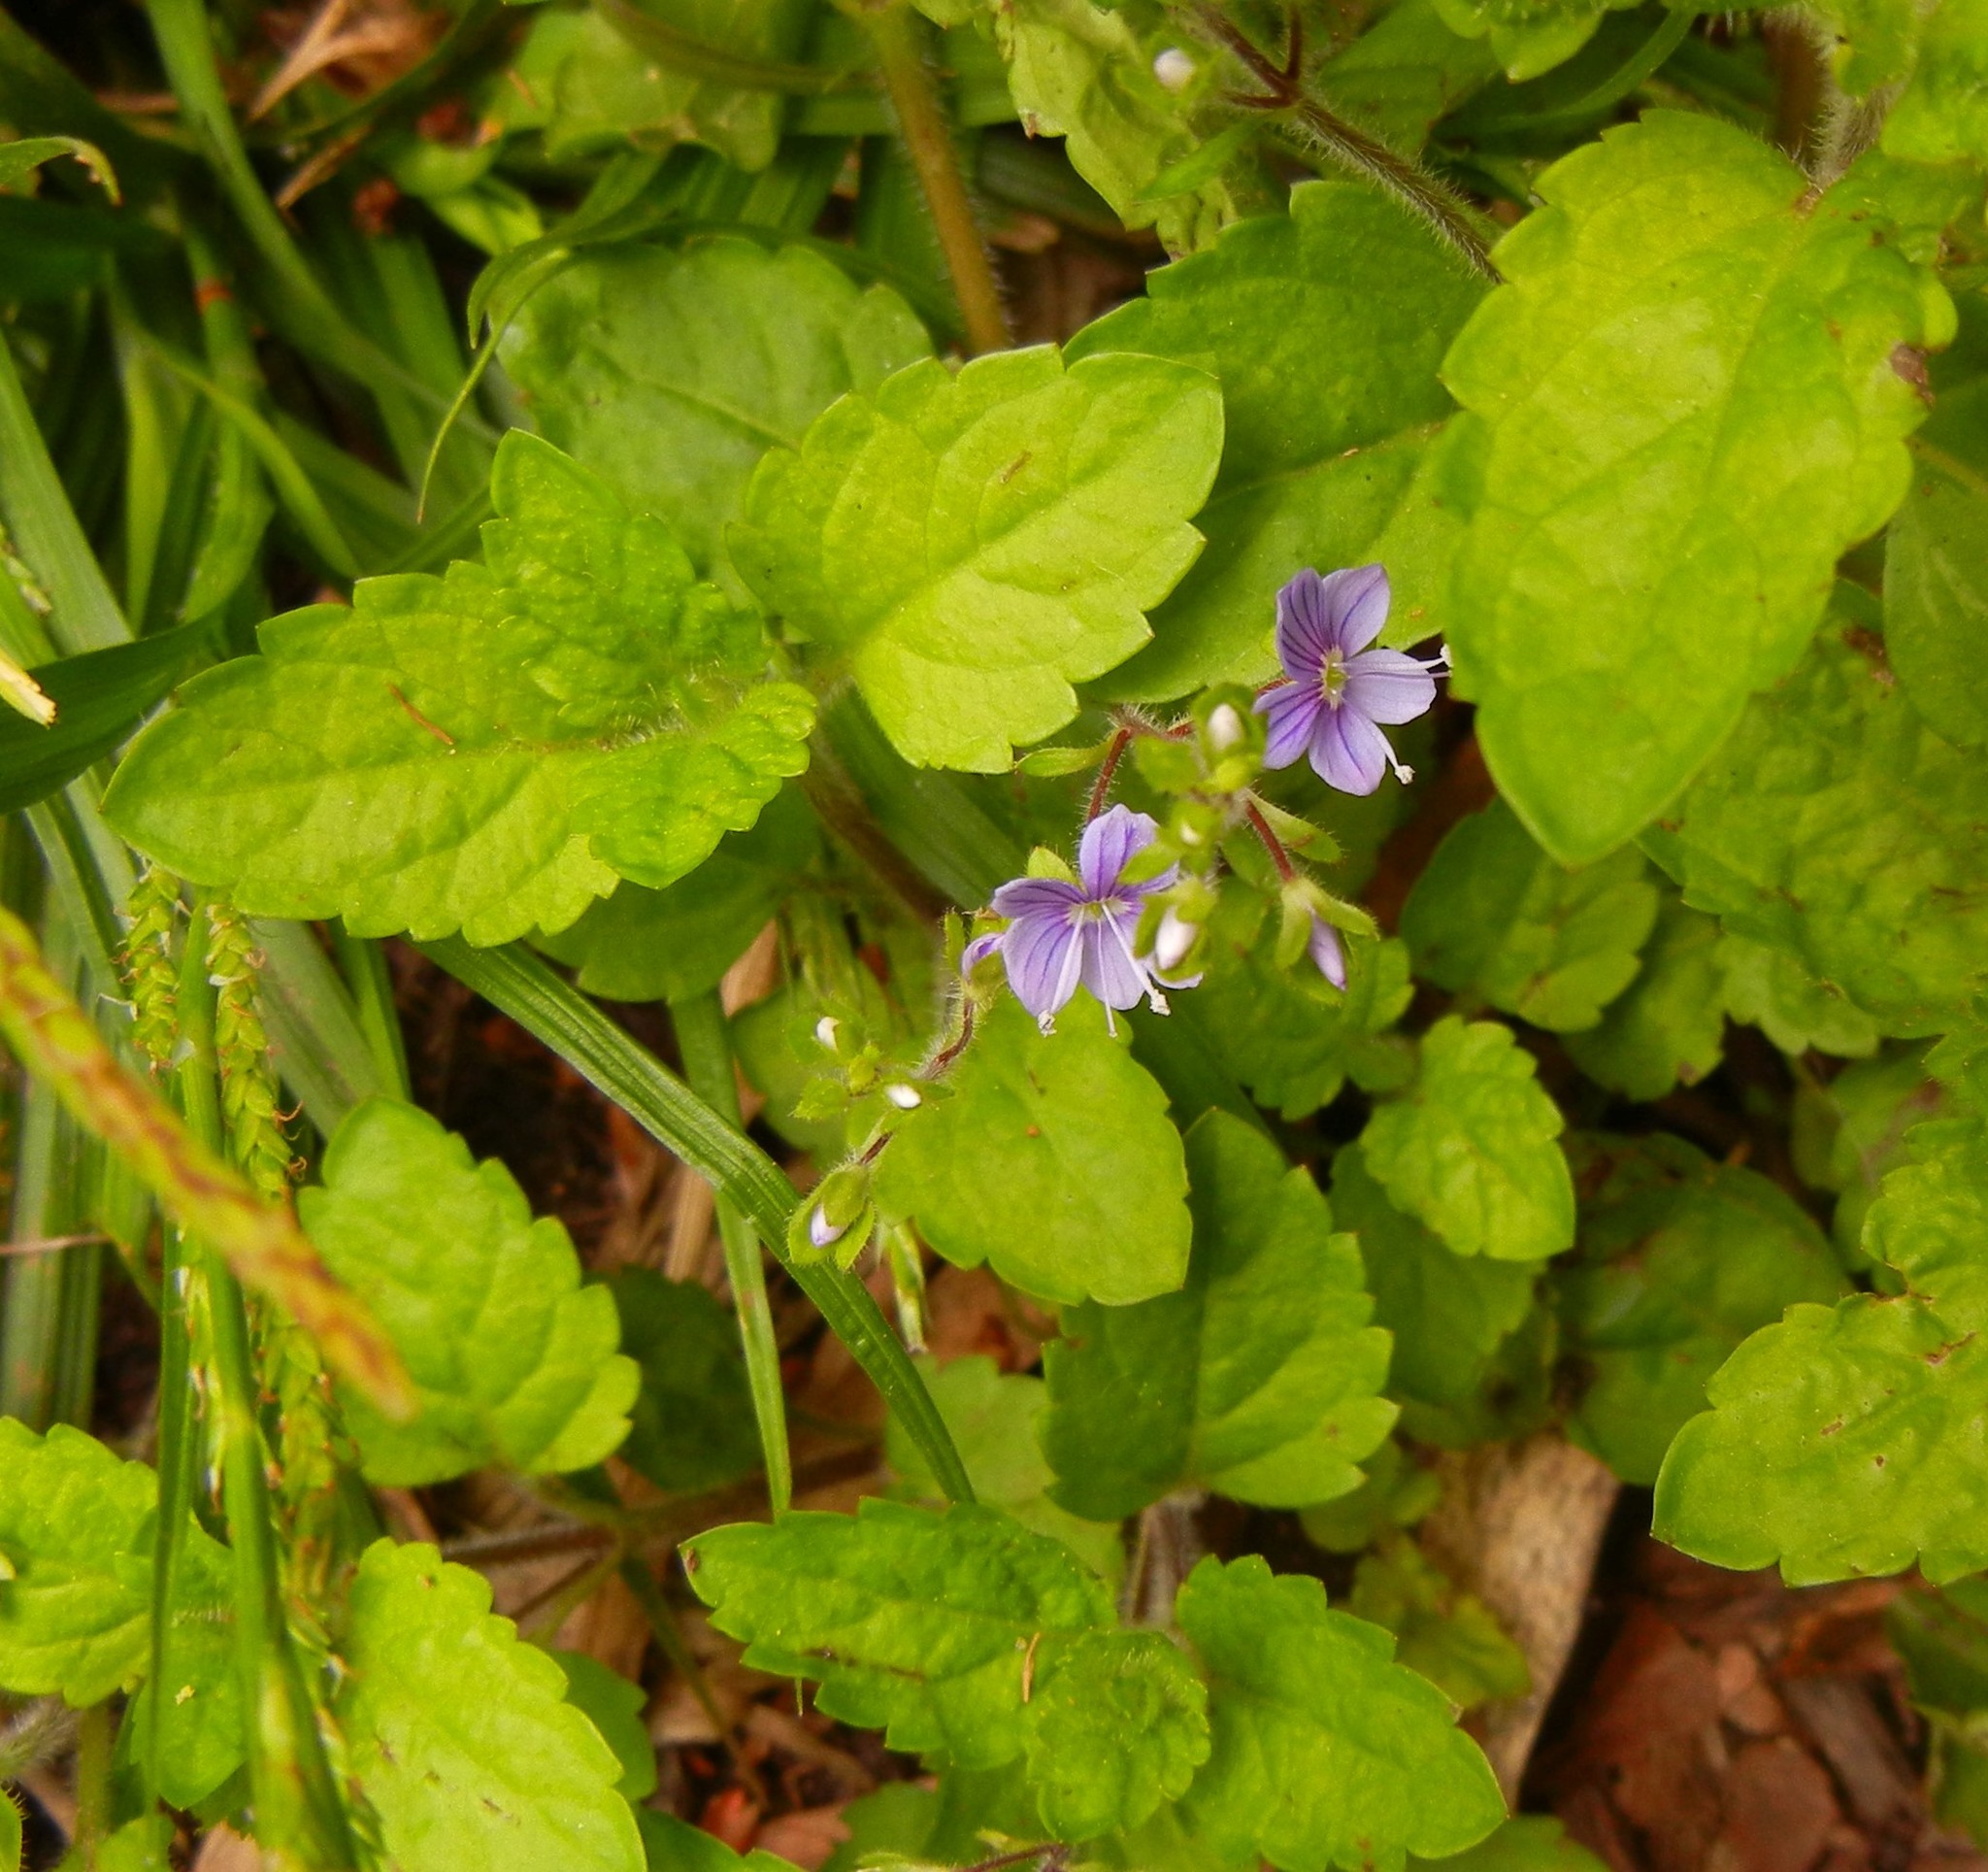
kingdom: Plantae
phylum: Tracheophyta
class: Magnoliopsida
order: Lamiales
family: Plantaginaceae
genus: Veronica
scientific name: Veronica montana
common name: Wood speedwell
